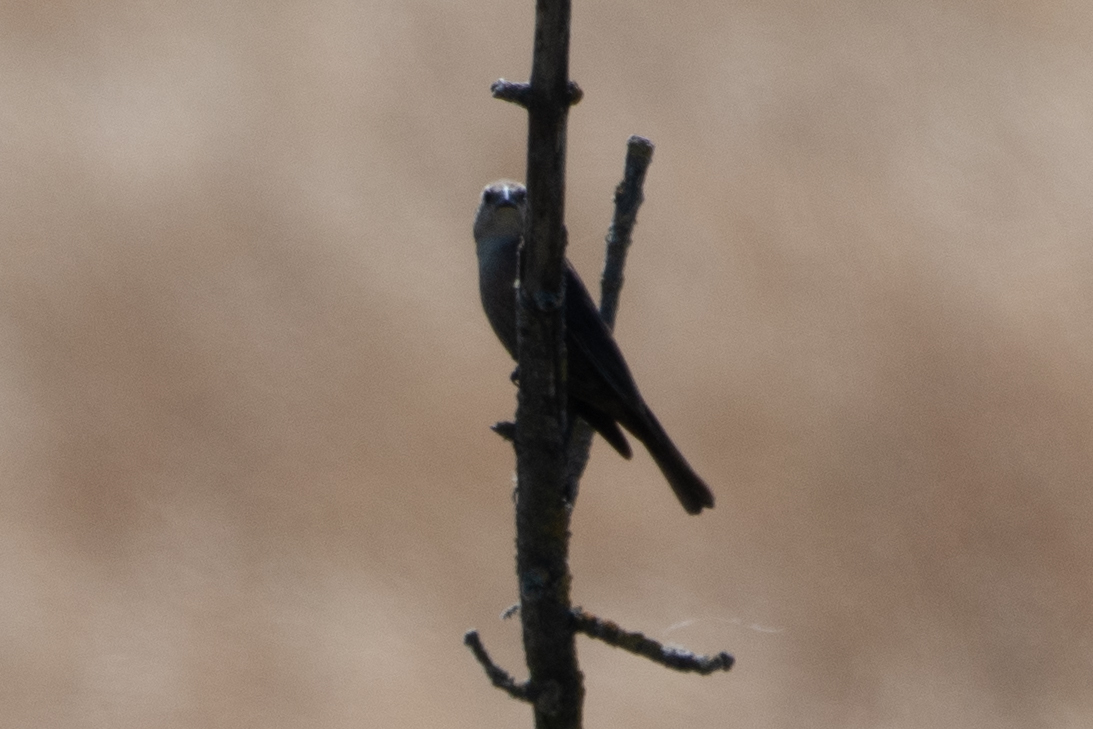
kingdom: Animalia
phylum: Chordata
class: Aves
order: Passeriformes
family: Icteridae
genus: Molothrus
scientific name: Molothrus ater
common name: Brown-headed cowbird
